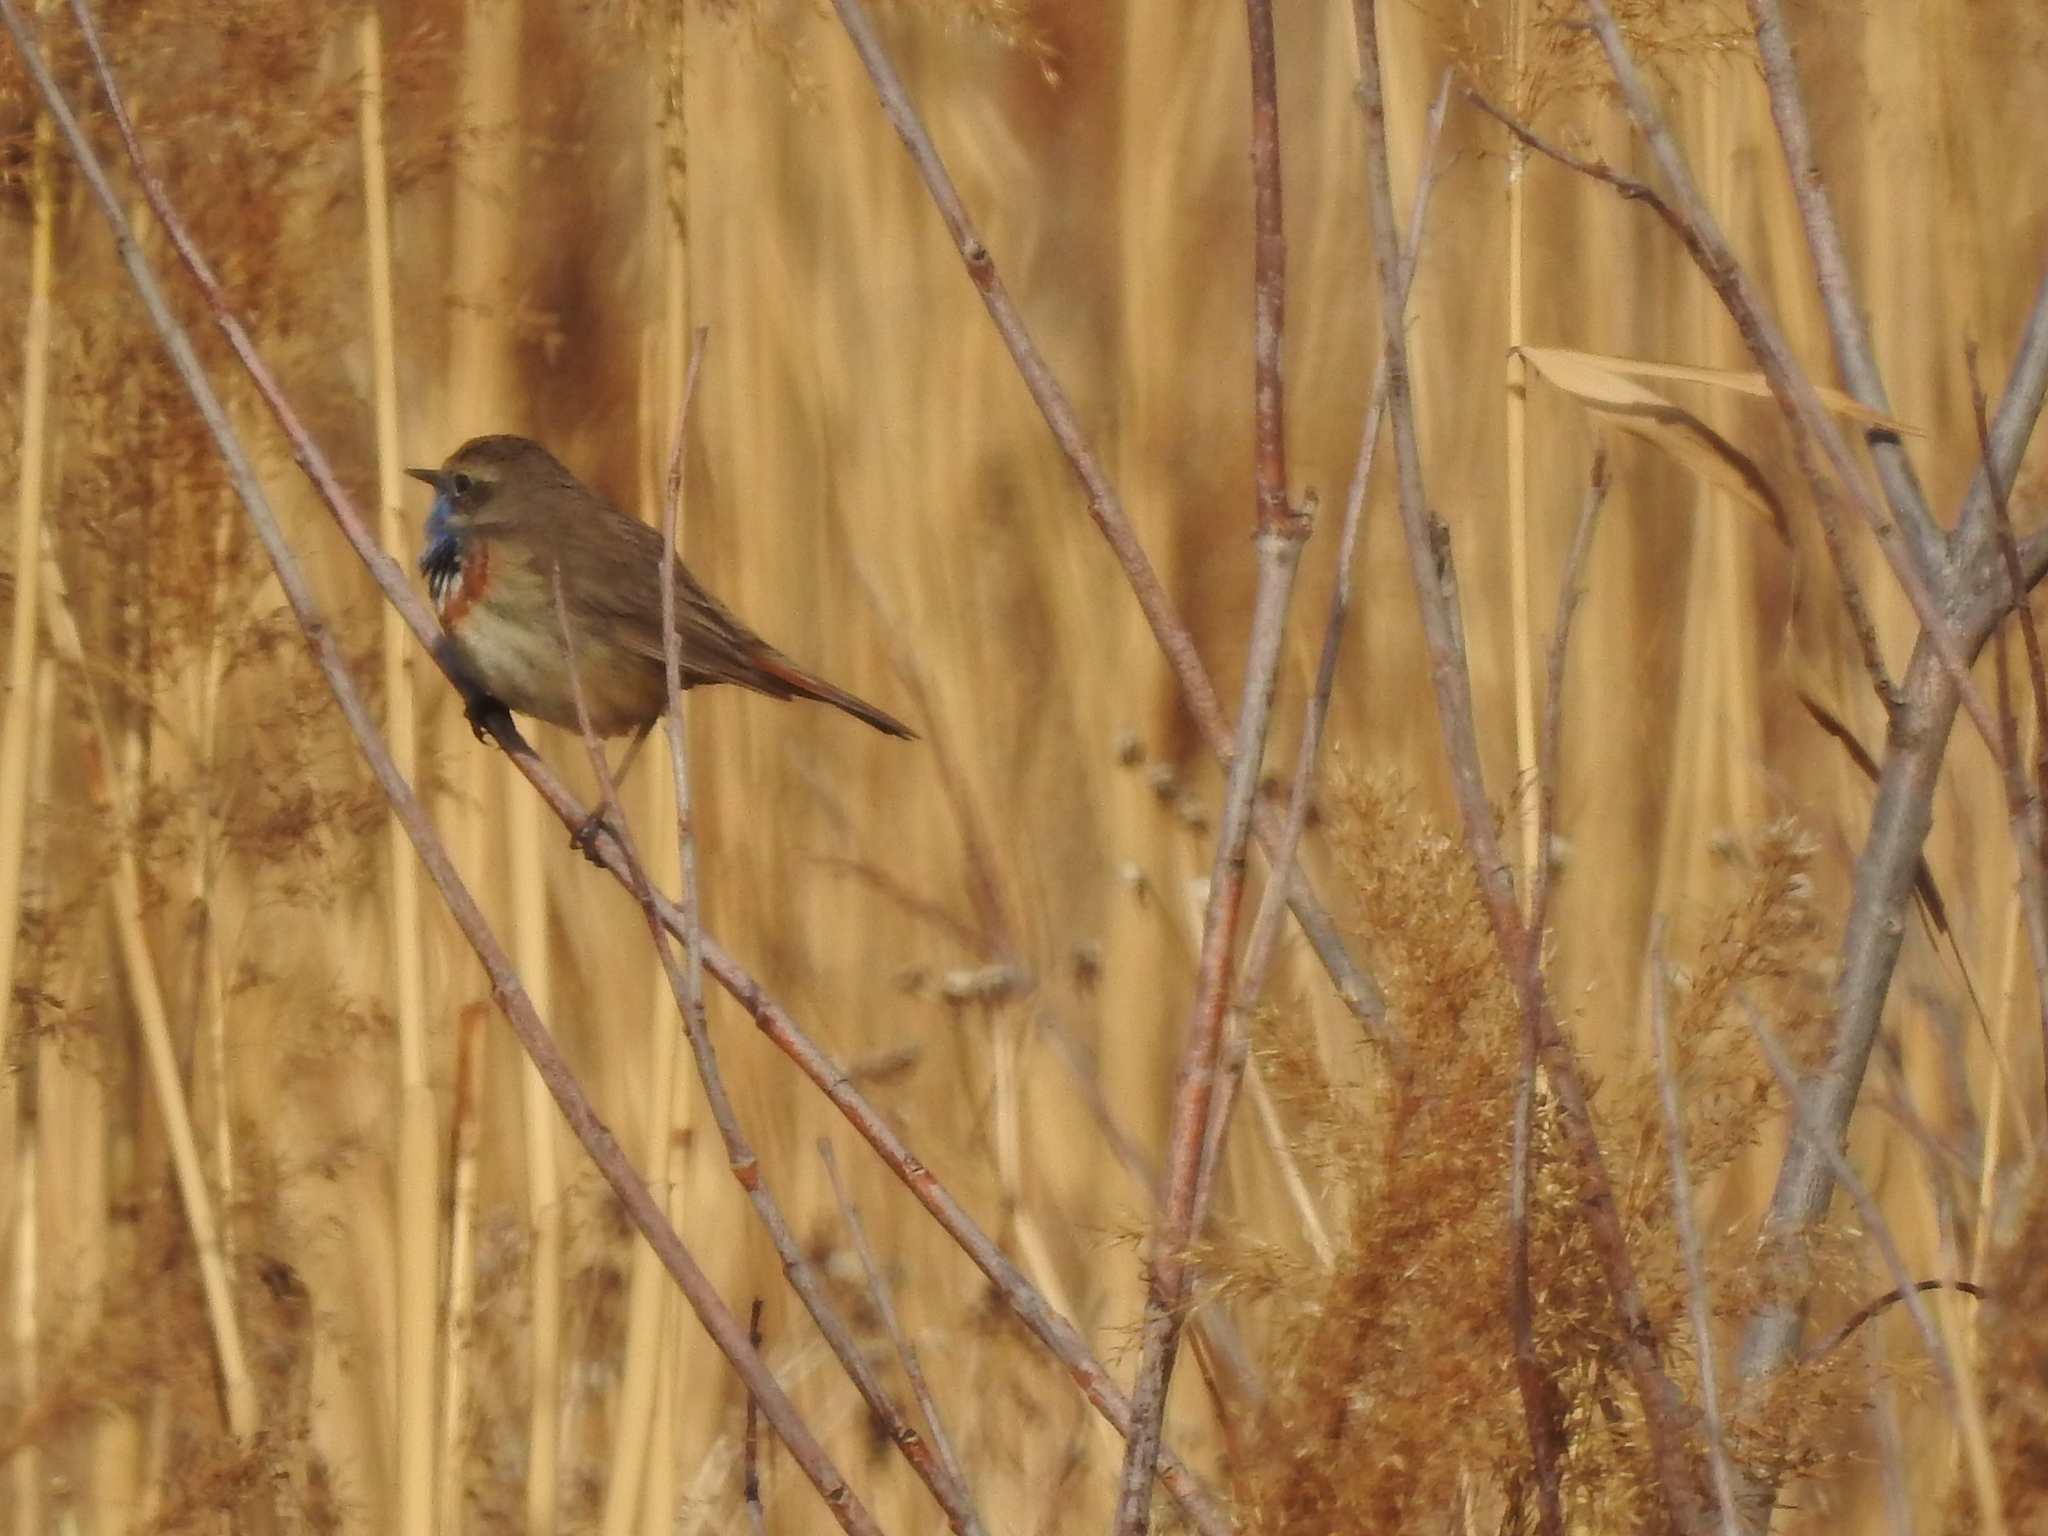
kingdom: Animalia
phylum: Chordata
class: Aves
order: Passeriformes
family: Muscicapidae
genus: Luscinia
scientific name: Luscinia svecica
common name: Bluethroat
